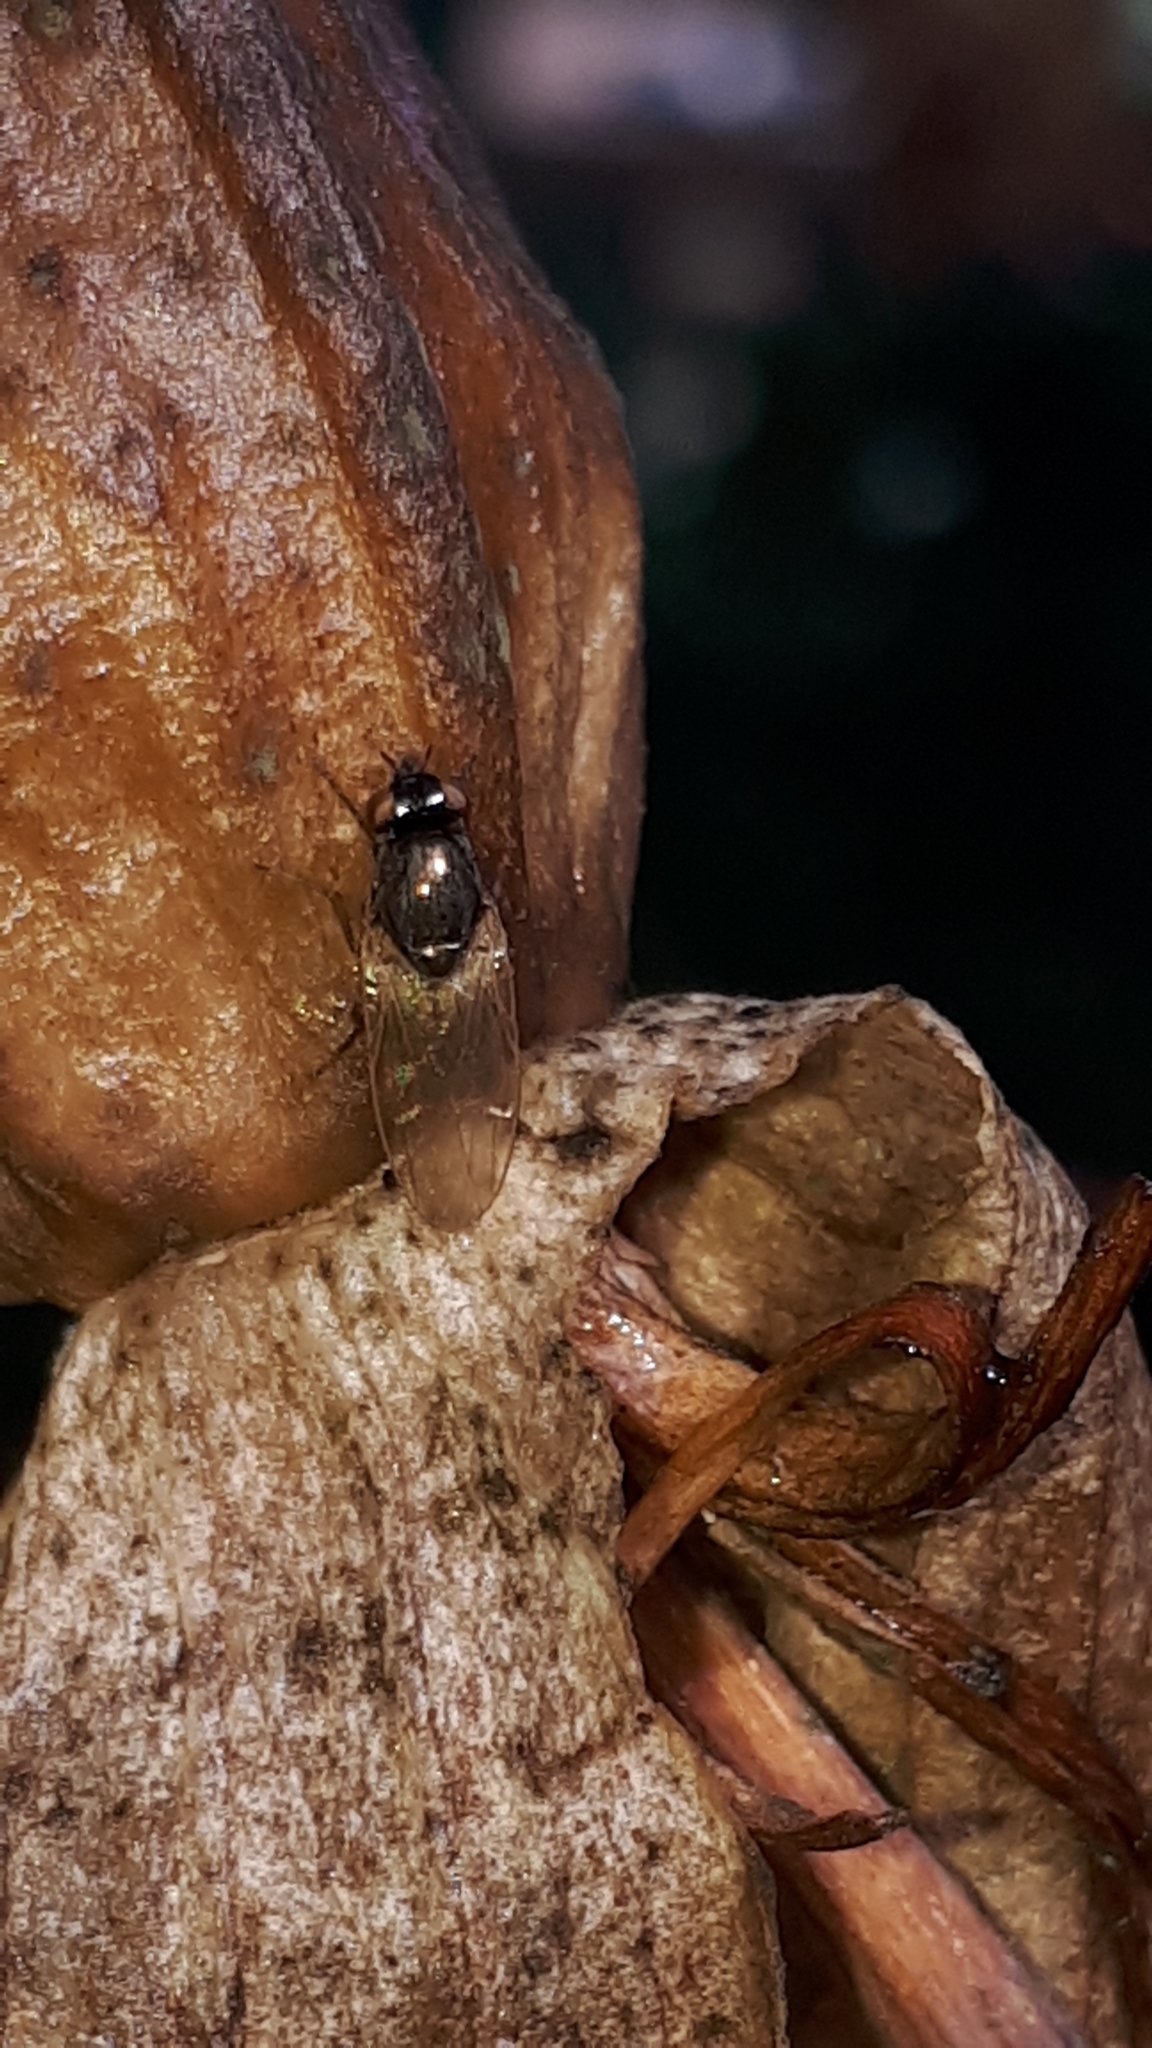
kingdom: Animalia
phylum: Arthropoda
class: Insecta
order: Diptera
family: Lauxaniidae
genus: Calliopum
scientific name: Calliopum
